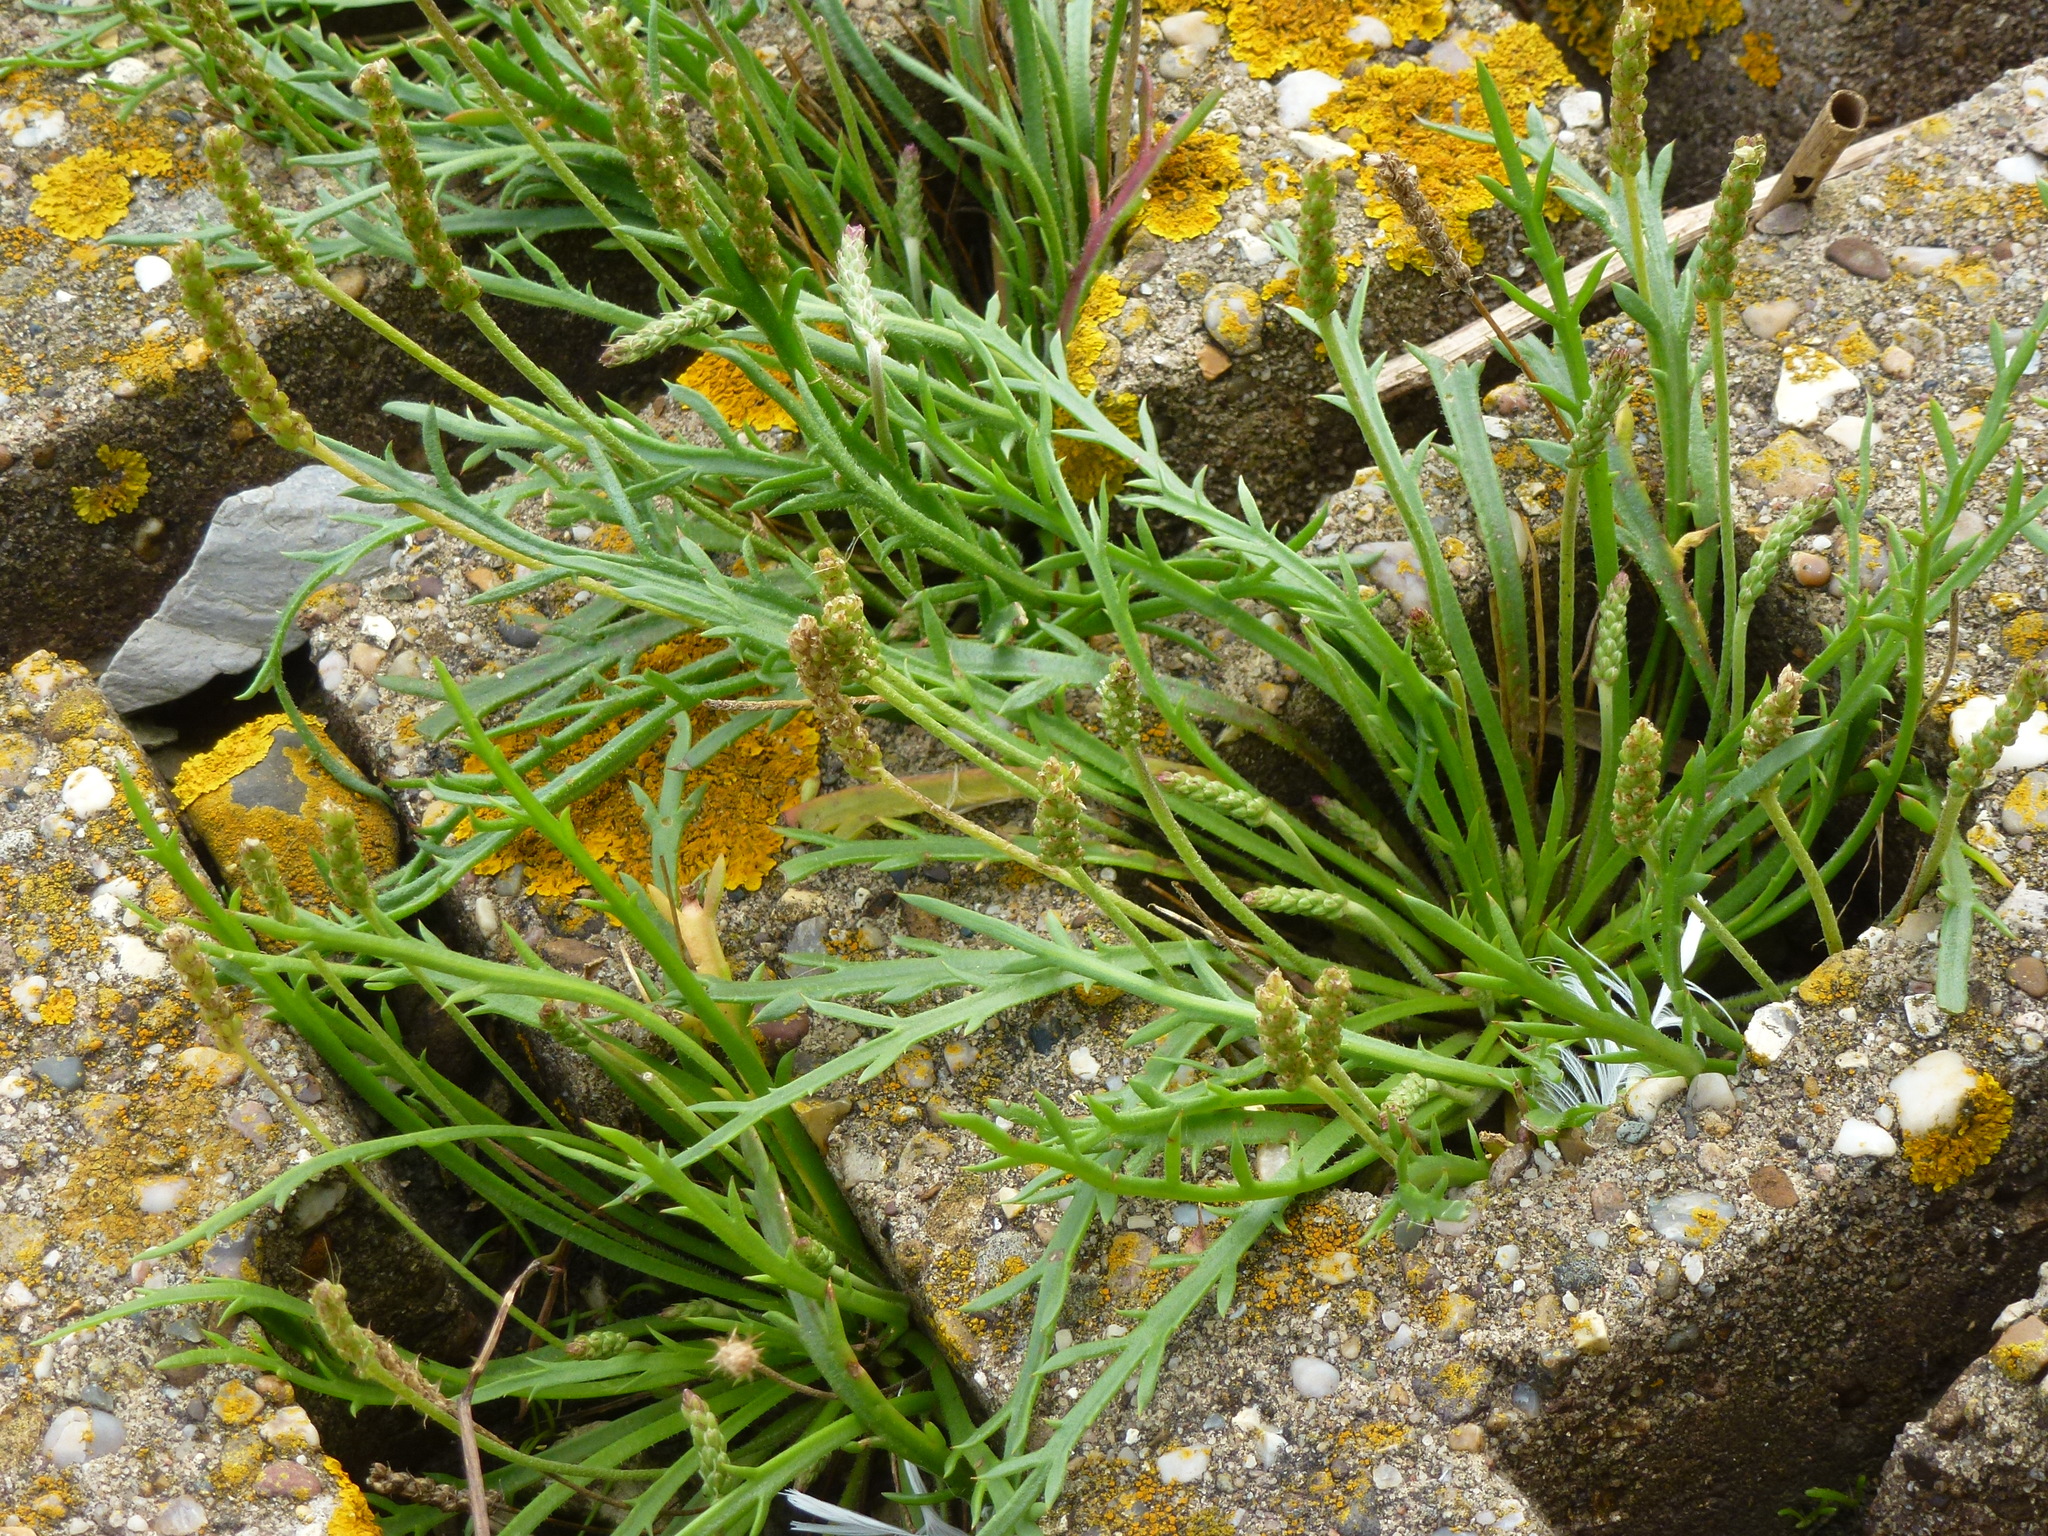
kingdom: Plantae
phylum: Tracheophyta
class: Magnoliopsida
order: Lamiales
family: Plantaginaceae
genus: Plantago
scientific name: Plantago coronopus
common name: Buck's-horn plantain
